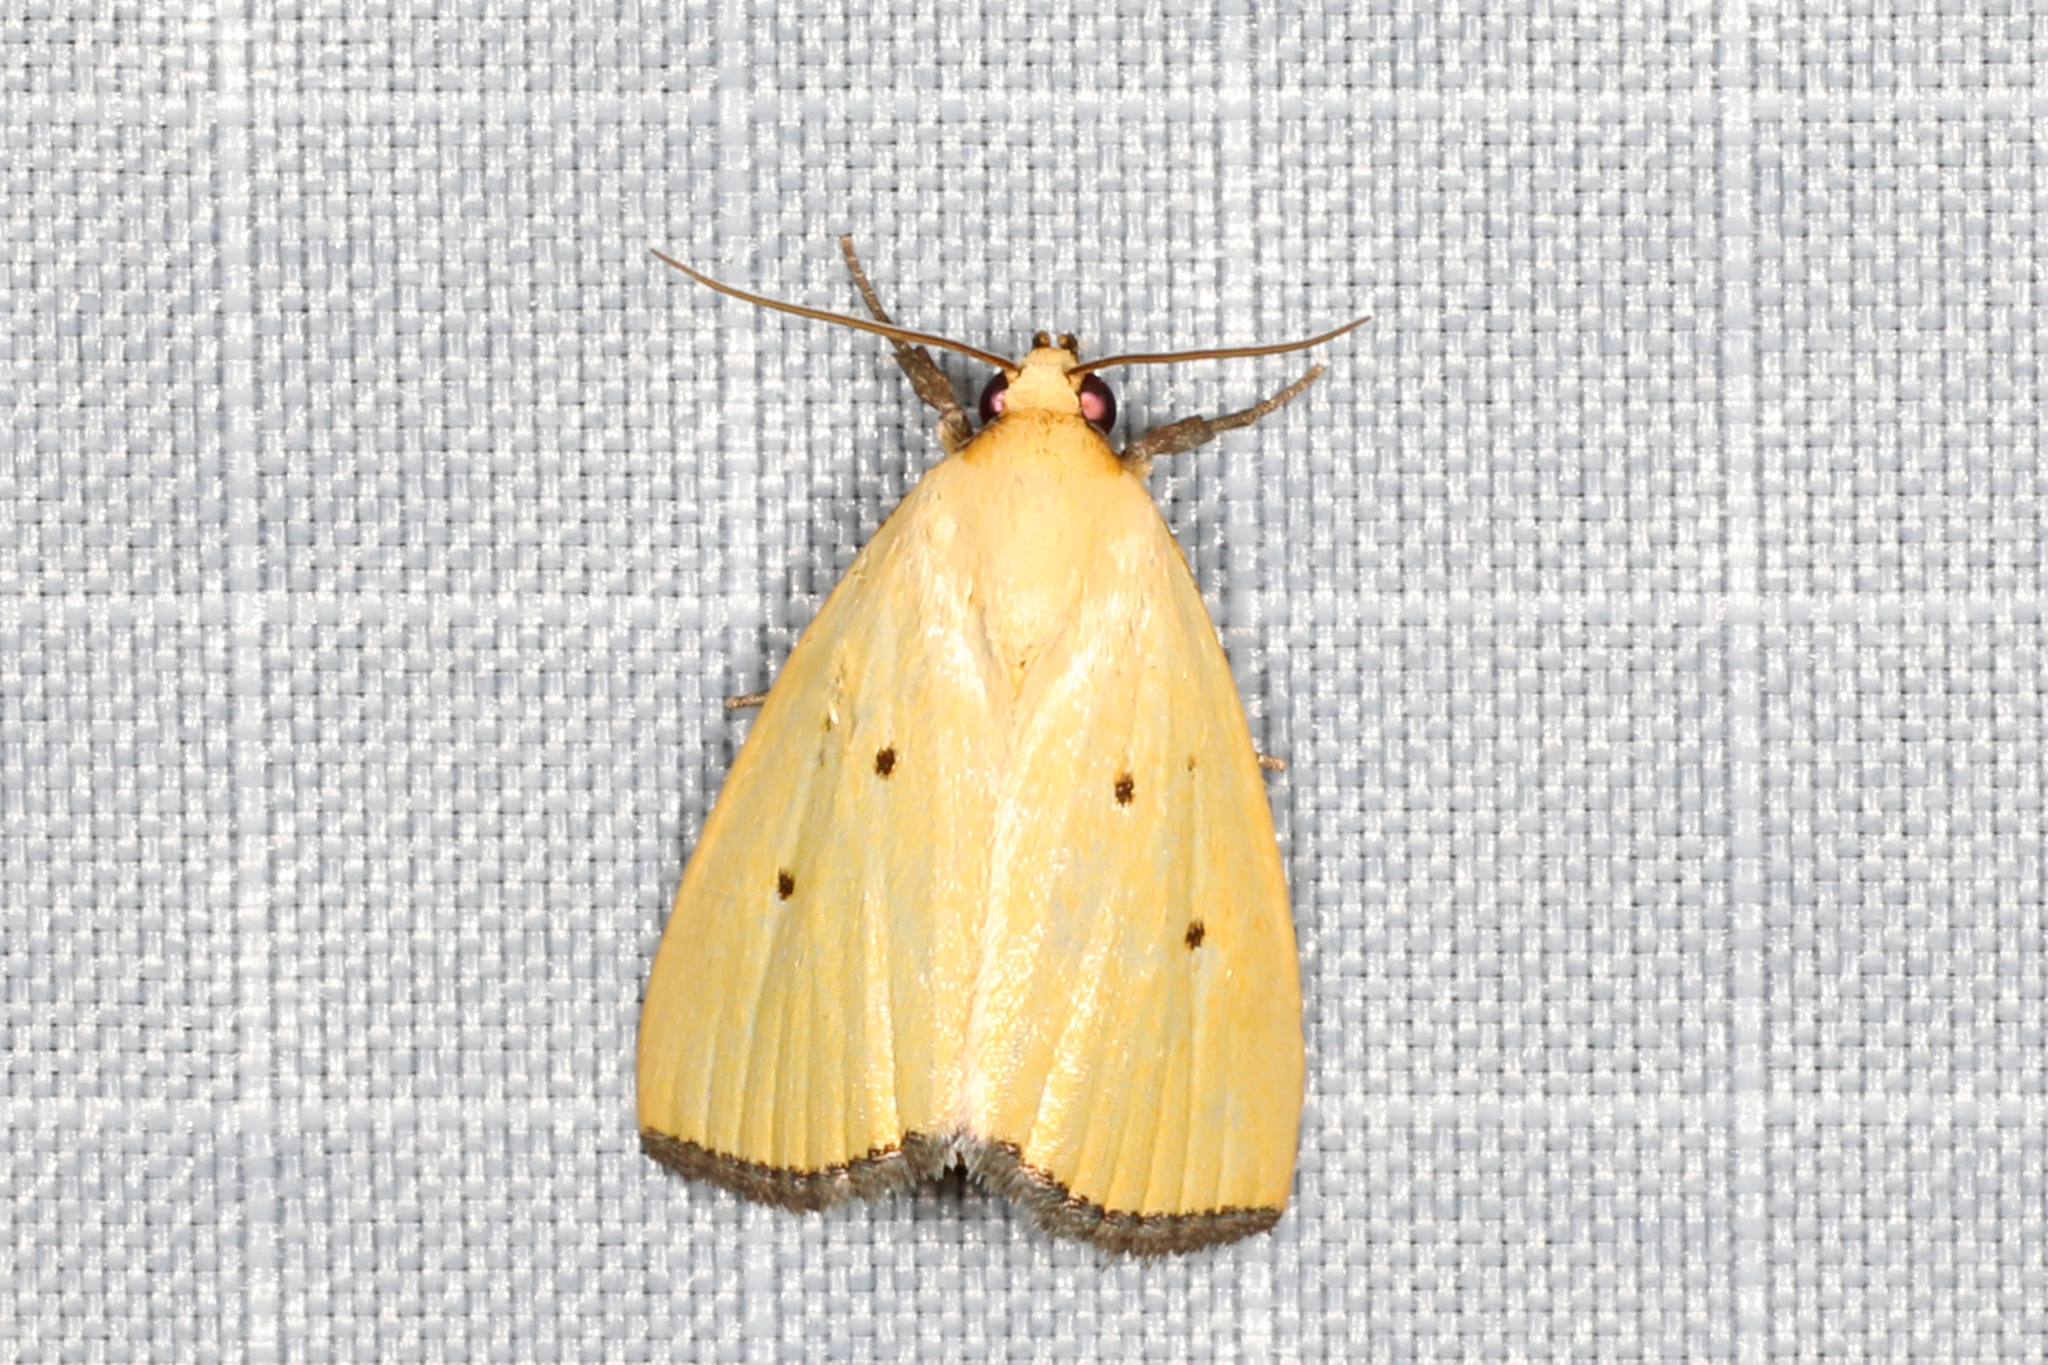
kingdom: Animalia
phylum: Arthropoda
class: Insecta
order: Lepidoptera
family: Noctuidae
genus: Marimatha
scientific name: Marimatha nigrofimbria
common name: Black-bordered lemon moth
